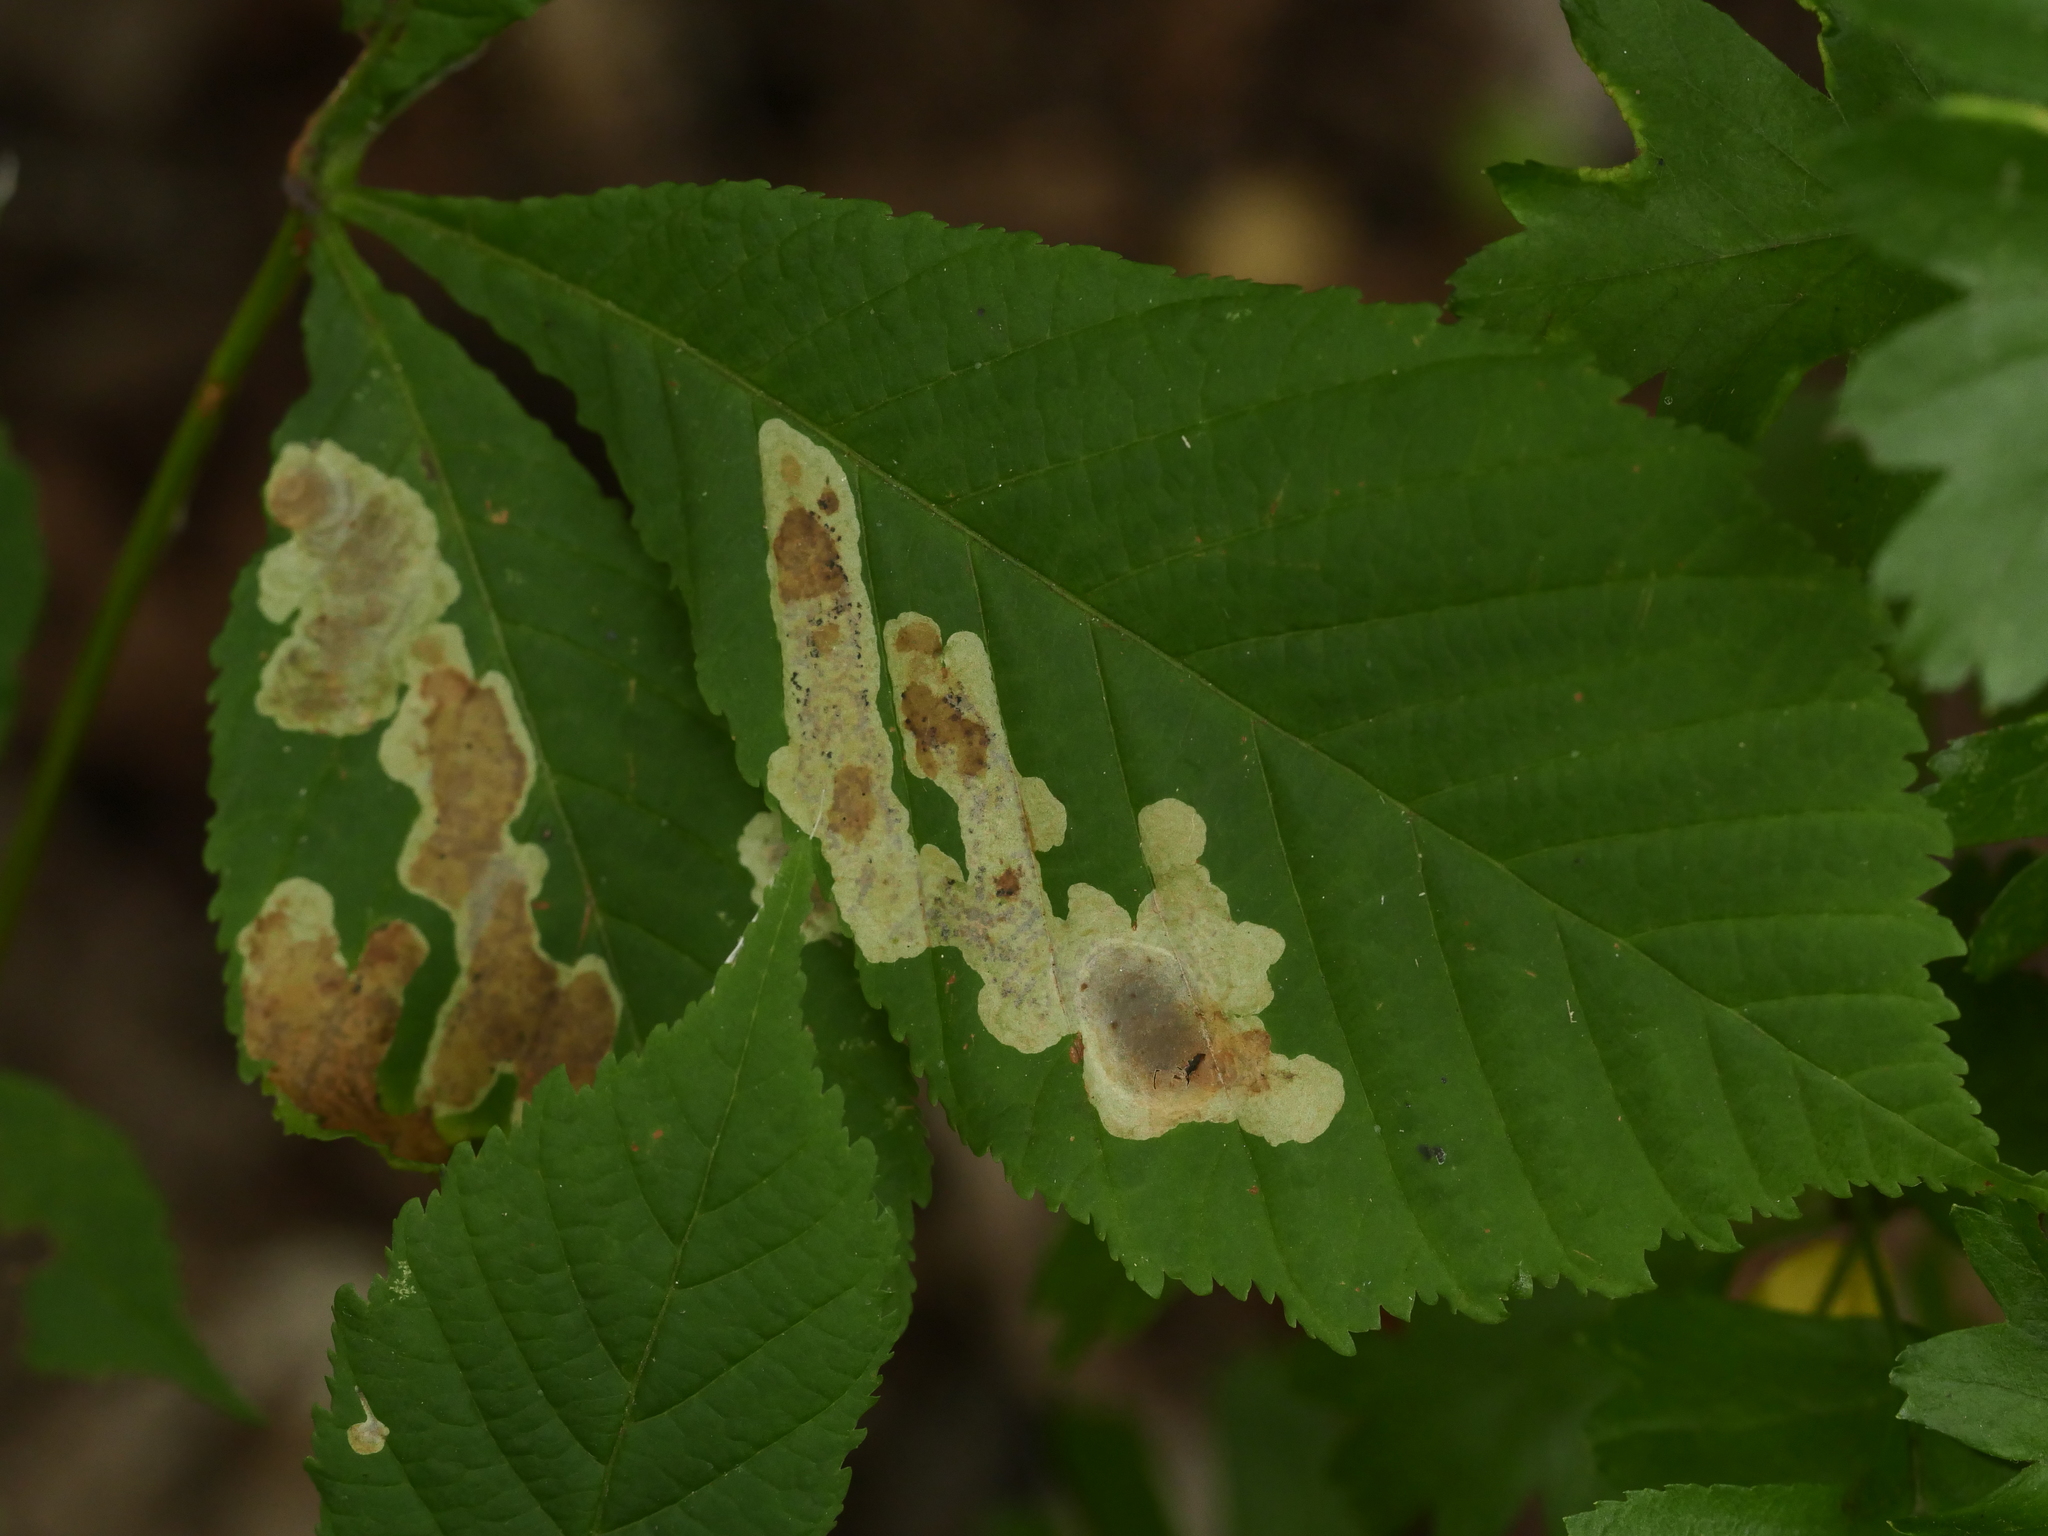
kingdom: Animalia
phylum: Arthropoda
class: Insecta
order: Lepidoptera
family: Gracillariidae
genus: Cameraria
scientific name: Cameraria ohridella
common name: Horse-chestnut leaf-miner
